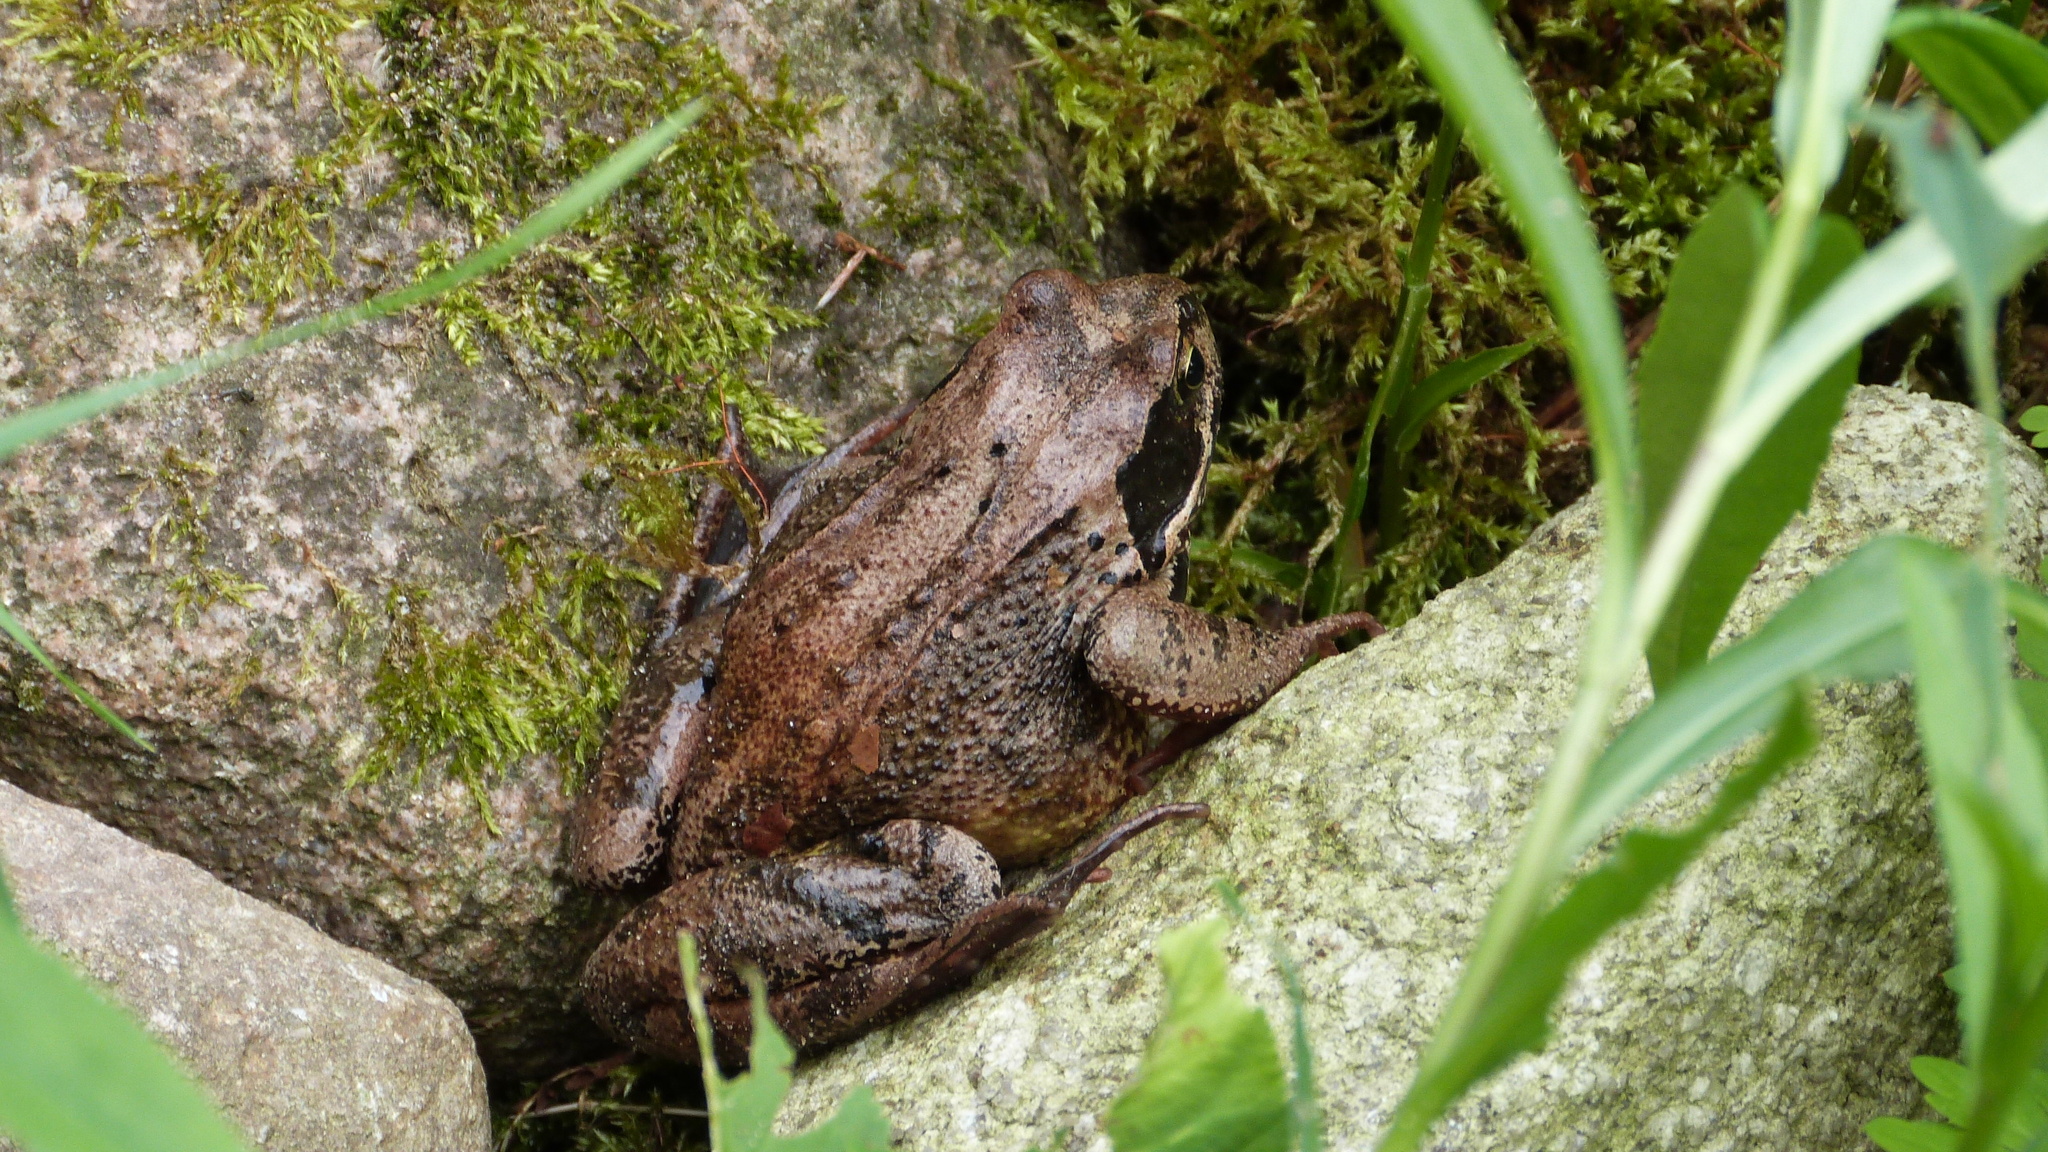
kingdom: Animalia
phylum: Chordata
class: Amphibia
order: Anura
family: Ranidae
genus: Rana
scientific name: Rana temporaria
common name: Common frog
